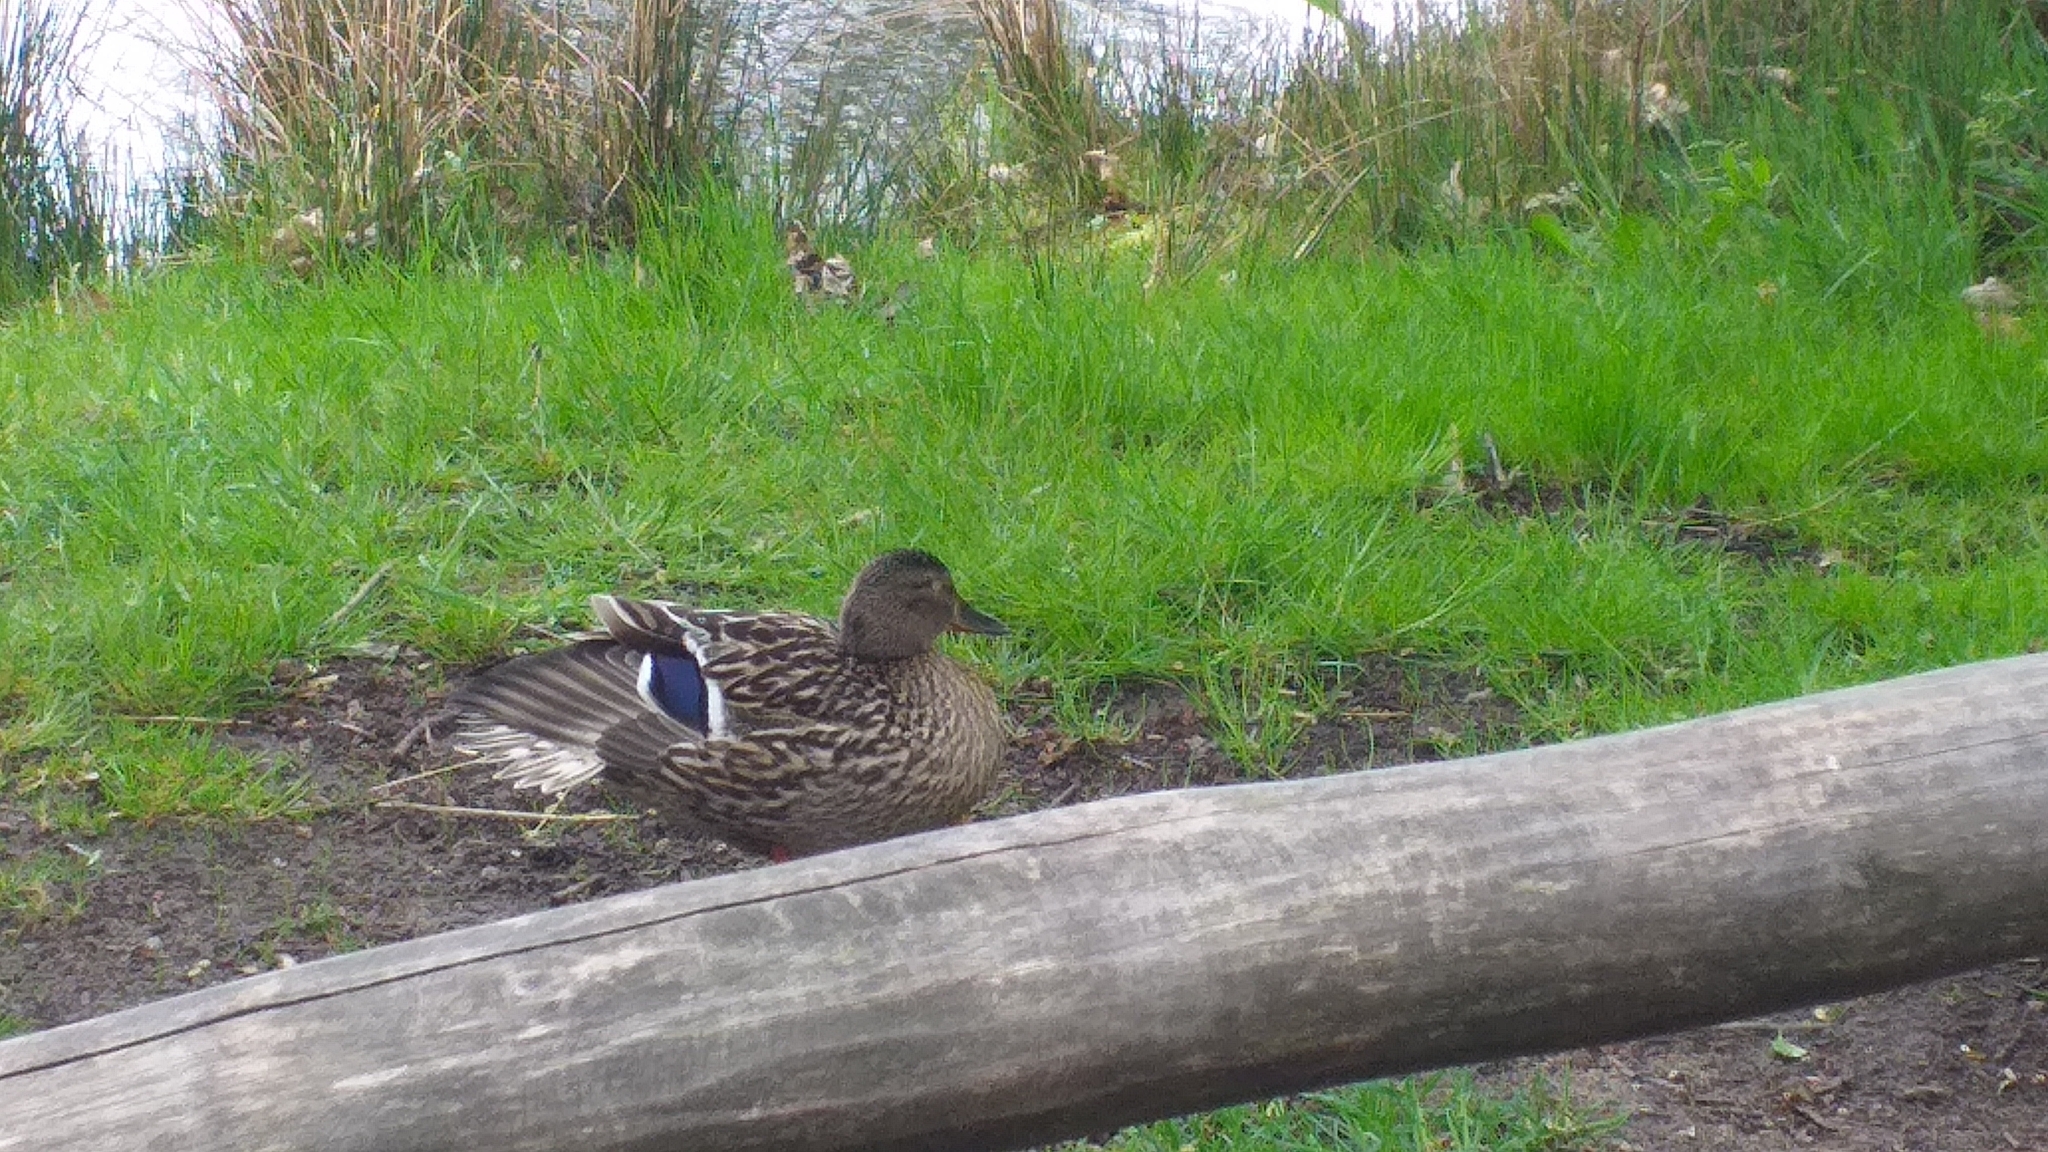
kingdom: Animalia
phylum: Chordata
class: Aves
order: Anseriformes
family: Anatidae
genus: Anas
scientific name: Anas platyrhynchos
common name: Mallard
